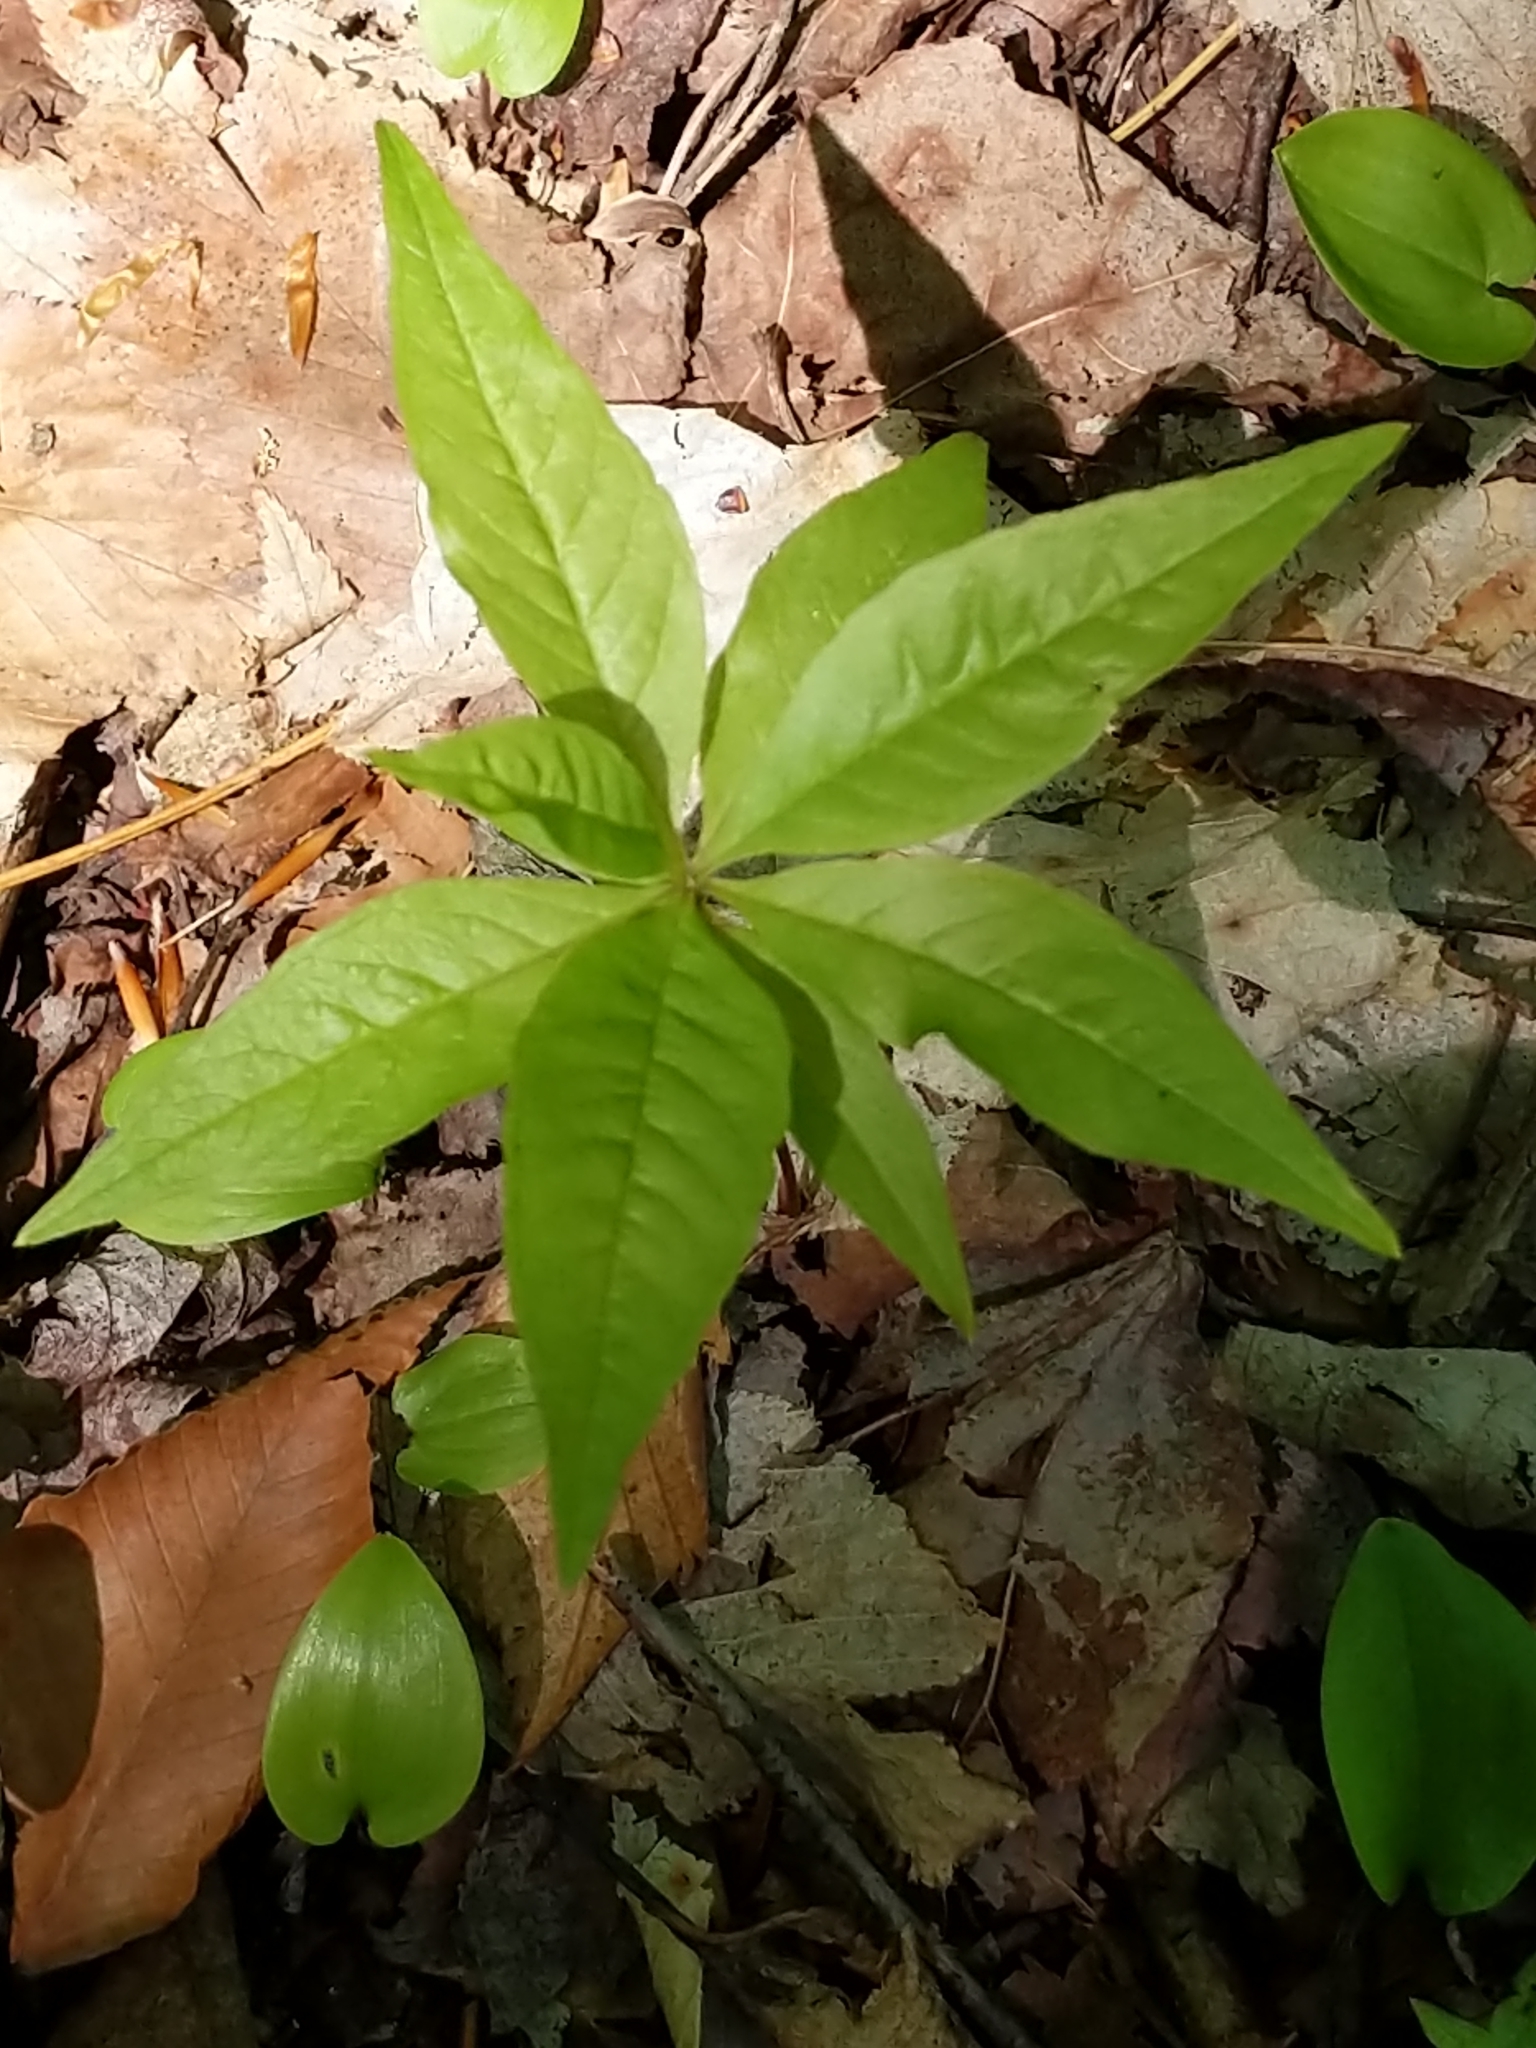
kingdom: Plantae
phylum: Tracheophyta
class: Magnoliopsida
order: Ericales
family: Primulaceae
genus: Lysimachia
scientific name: Lysimachia borealis
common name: American starflower
